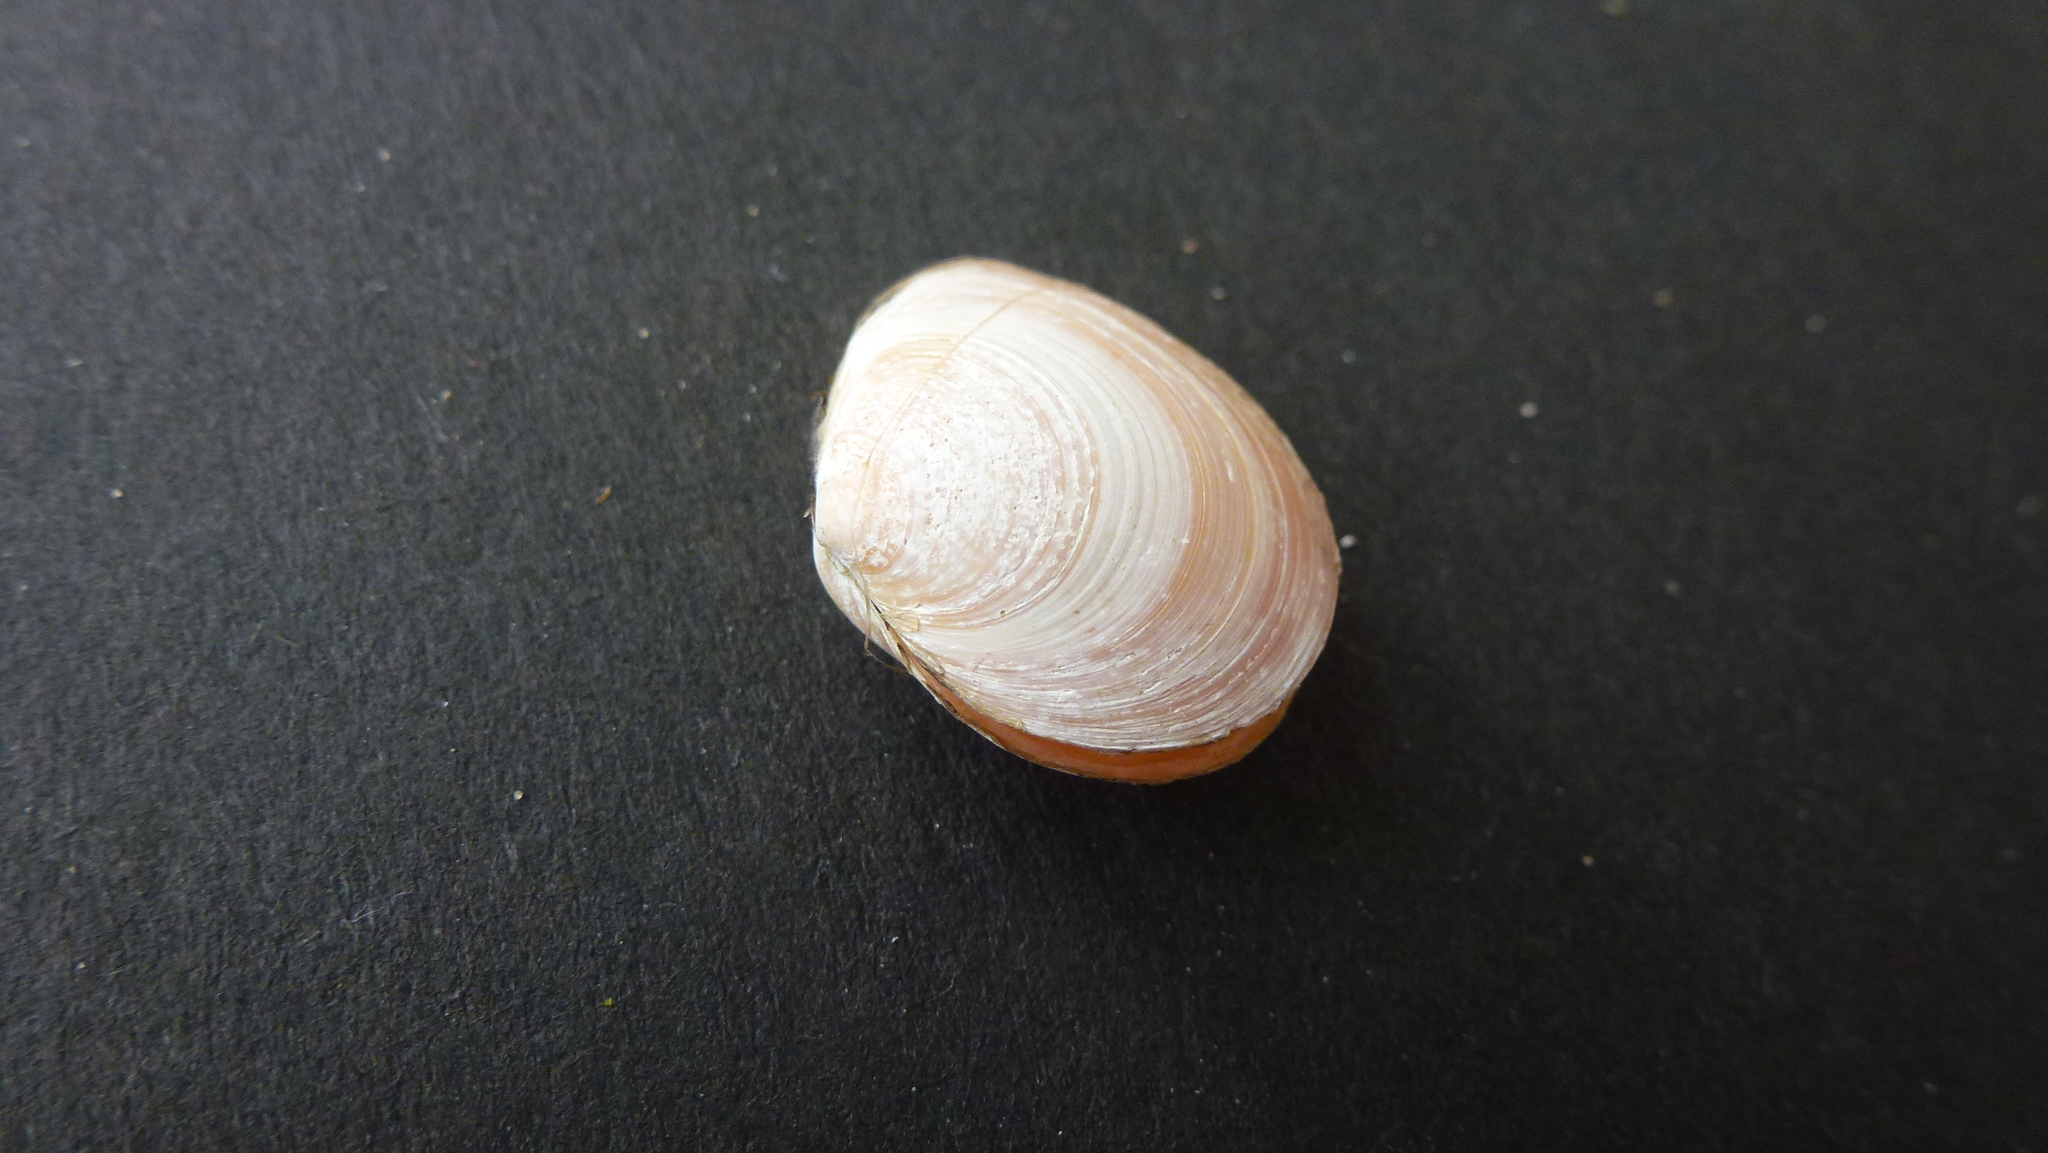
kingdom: Animalia
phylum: Mollusca
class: Bivalvia
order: Cardiida
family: Tellinidae
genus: Macoma
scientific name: Macoma balthica
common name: Baltic tellin
